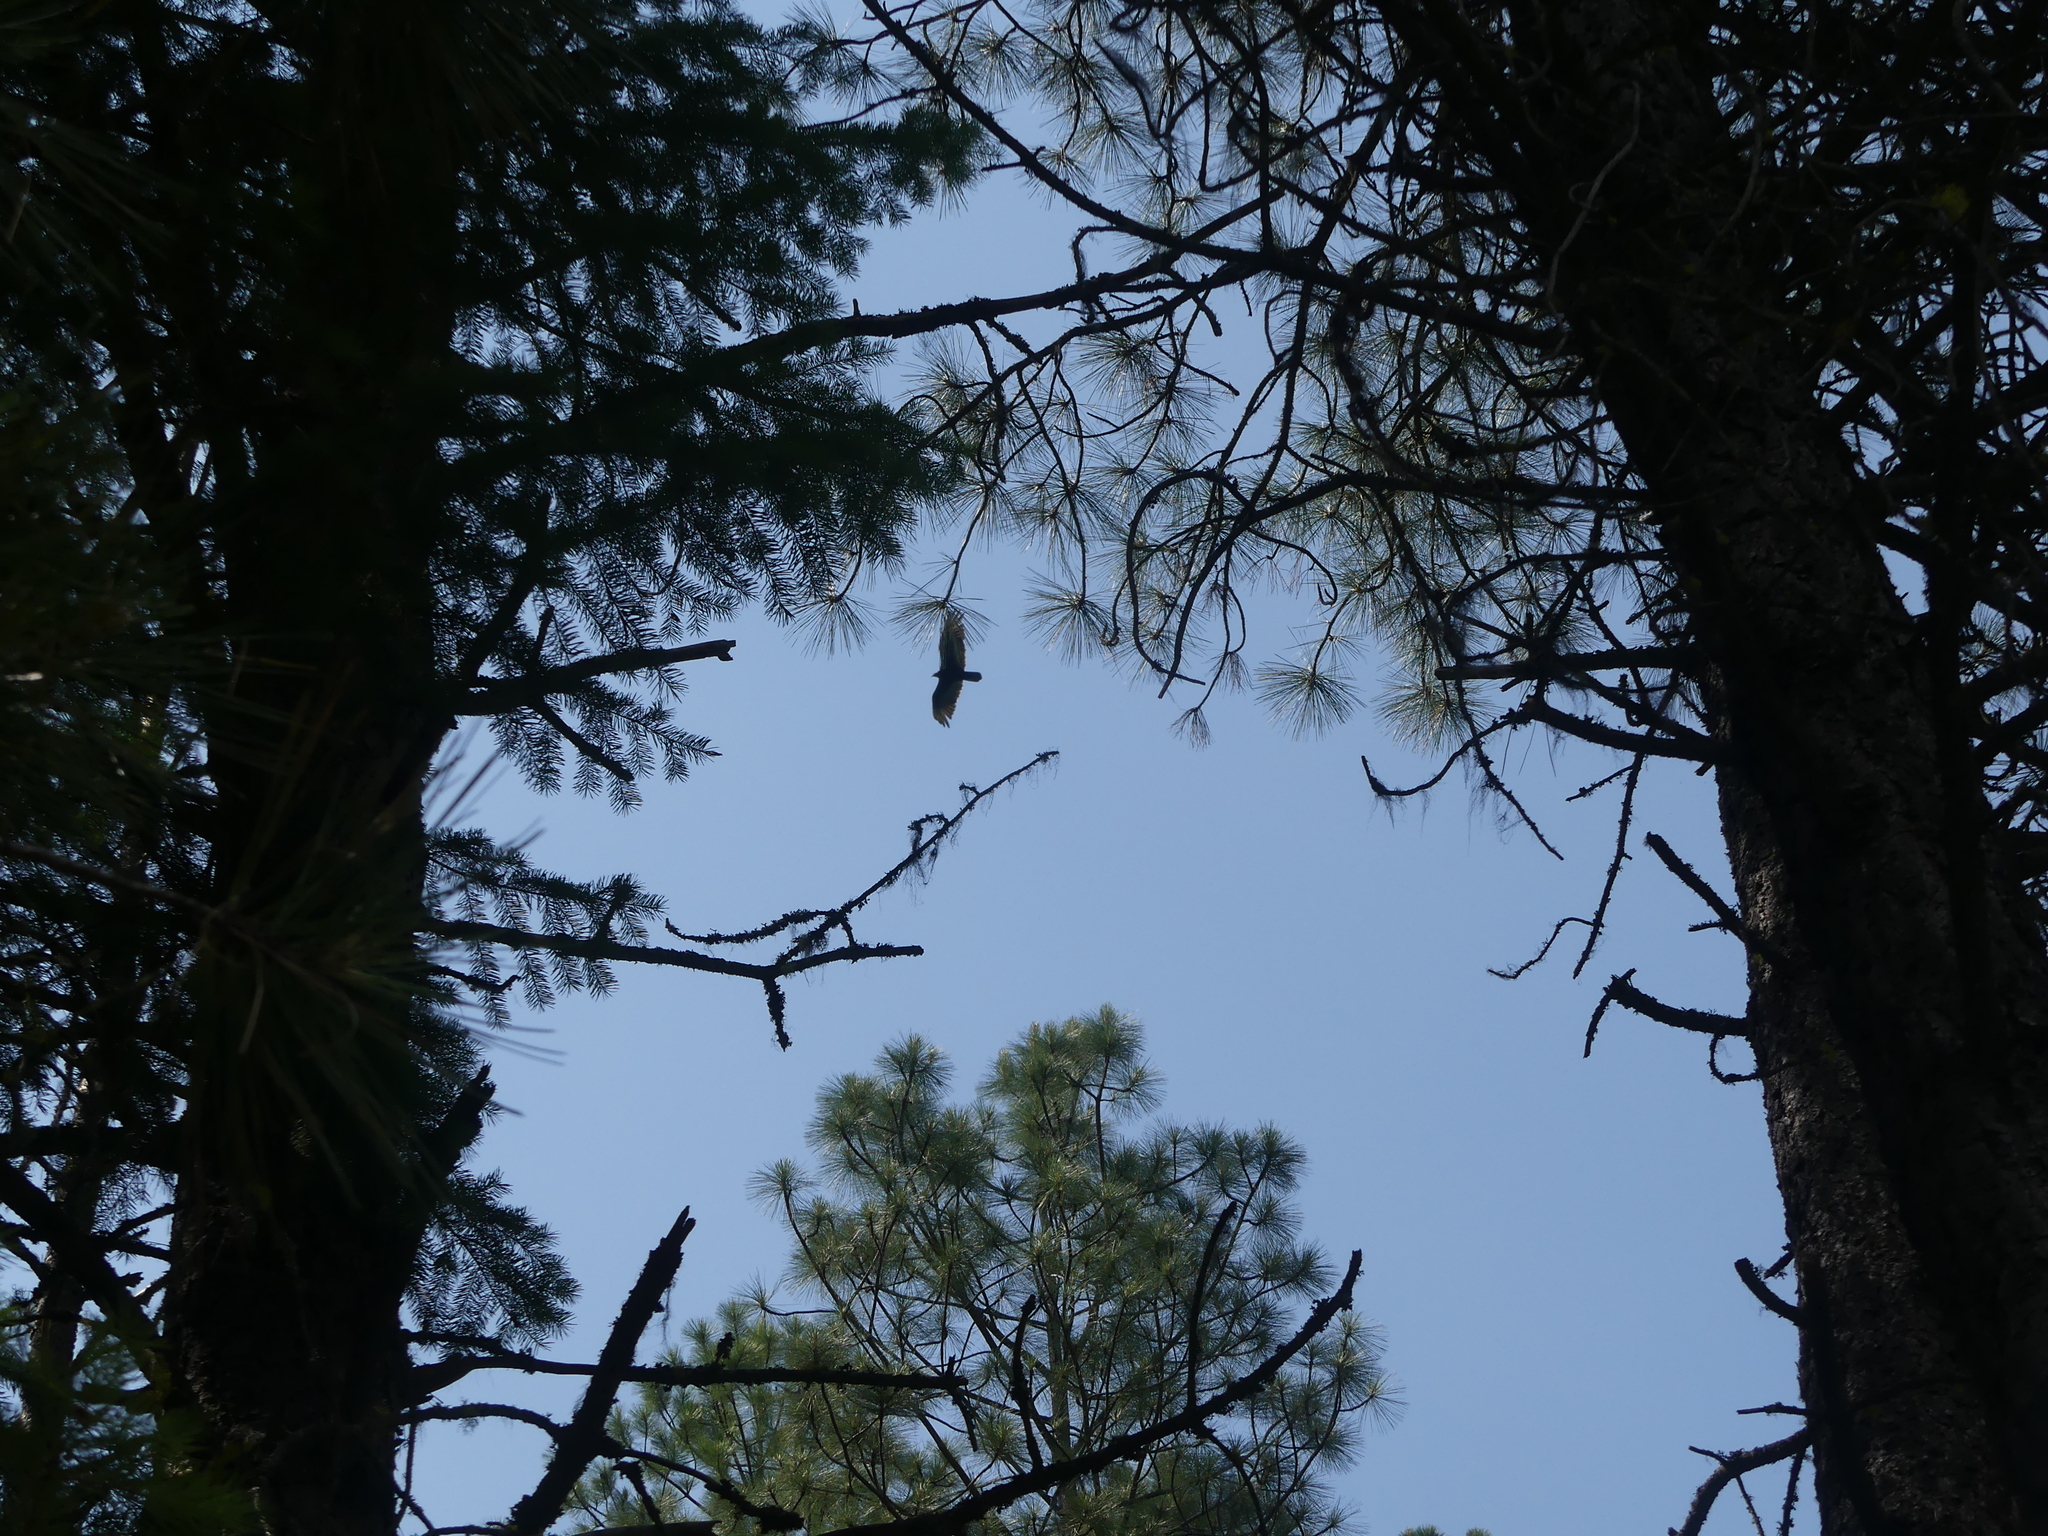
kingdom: Animalia
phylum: Chordata
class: Aves
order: Accipitriformes
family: Cathartidae
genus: Cathartes
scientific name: Cathartes aura
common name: Turkey vulture
